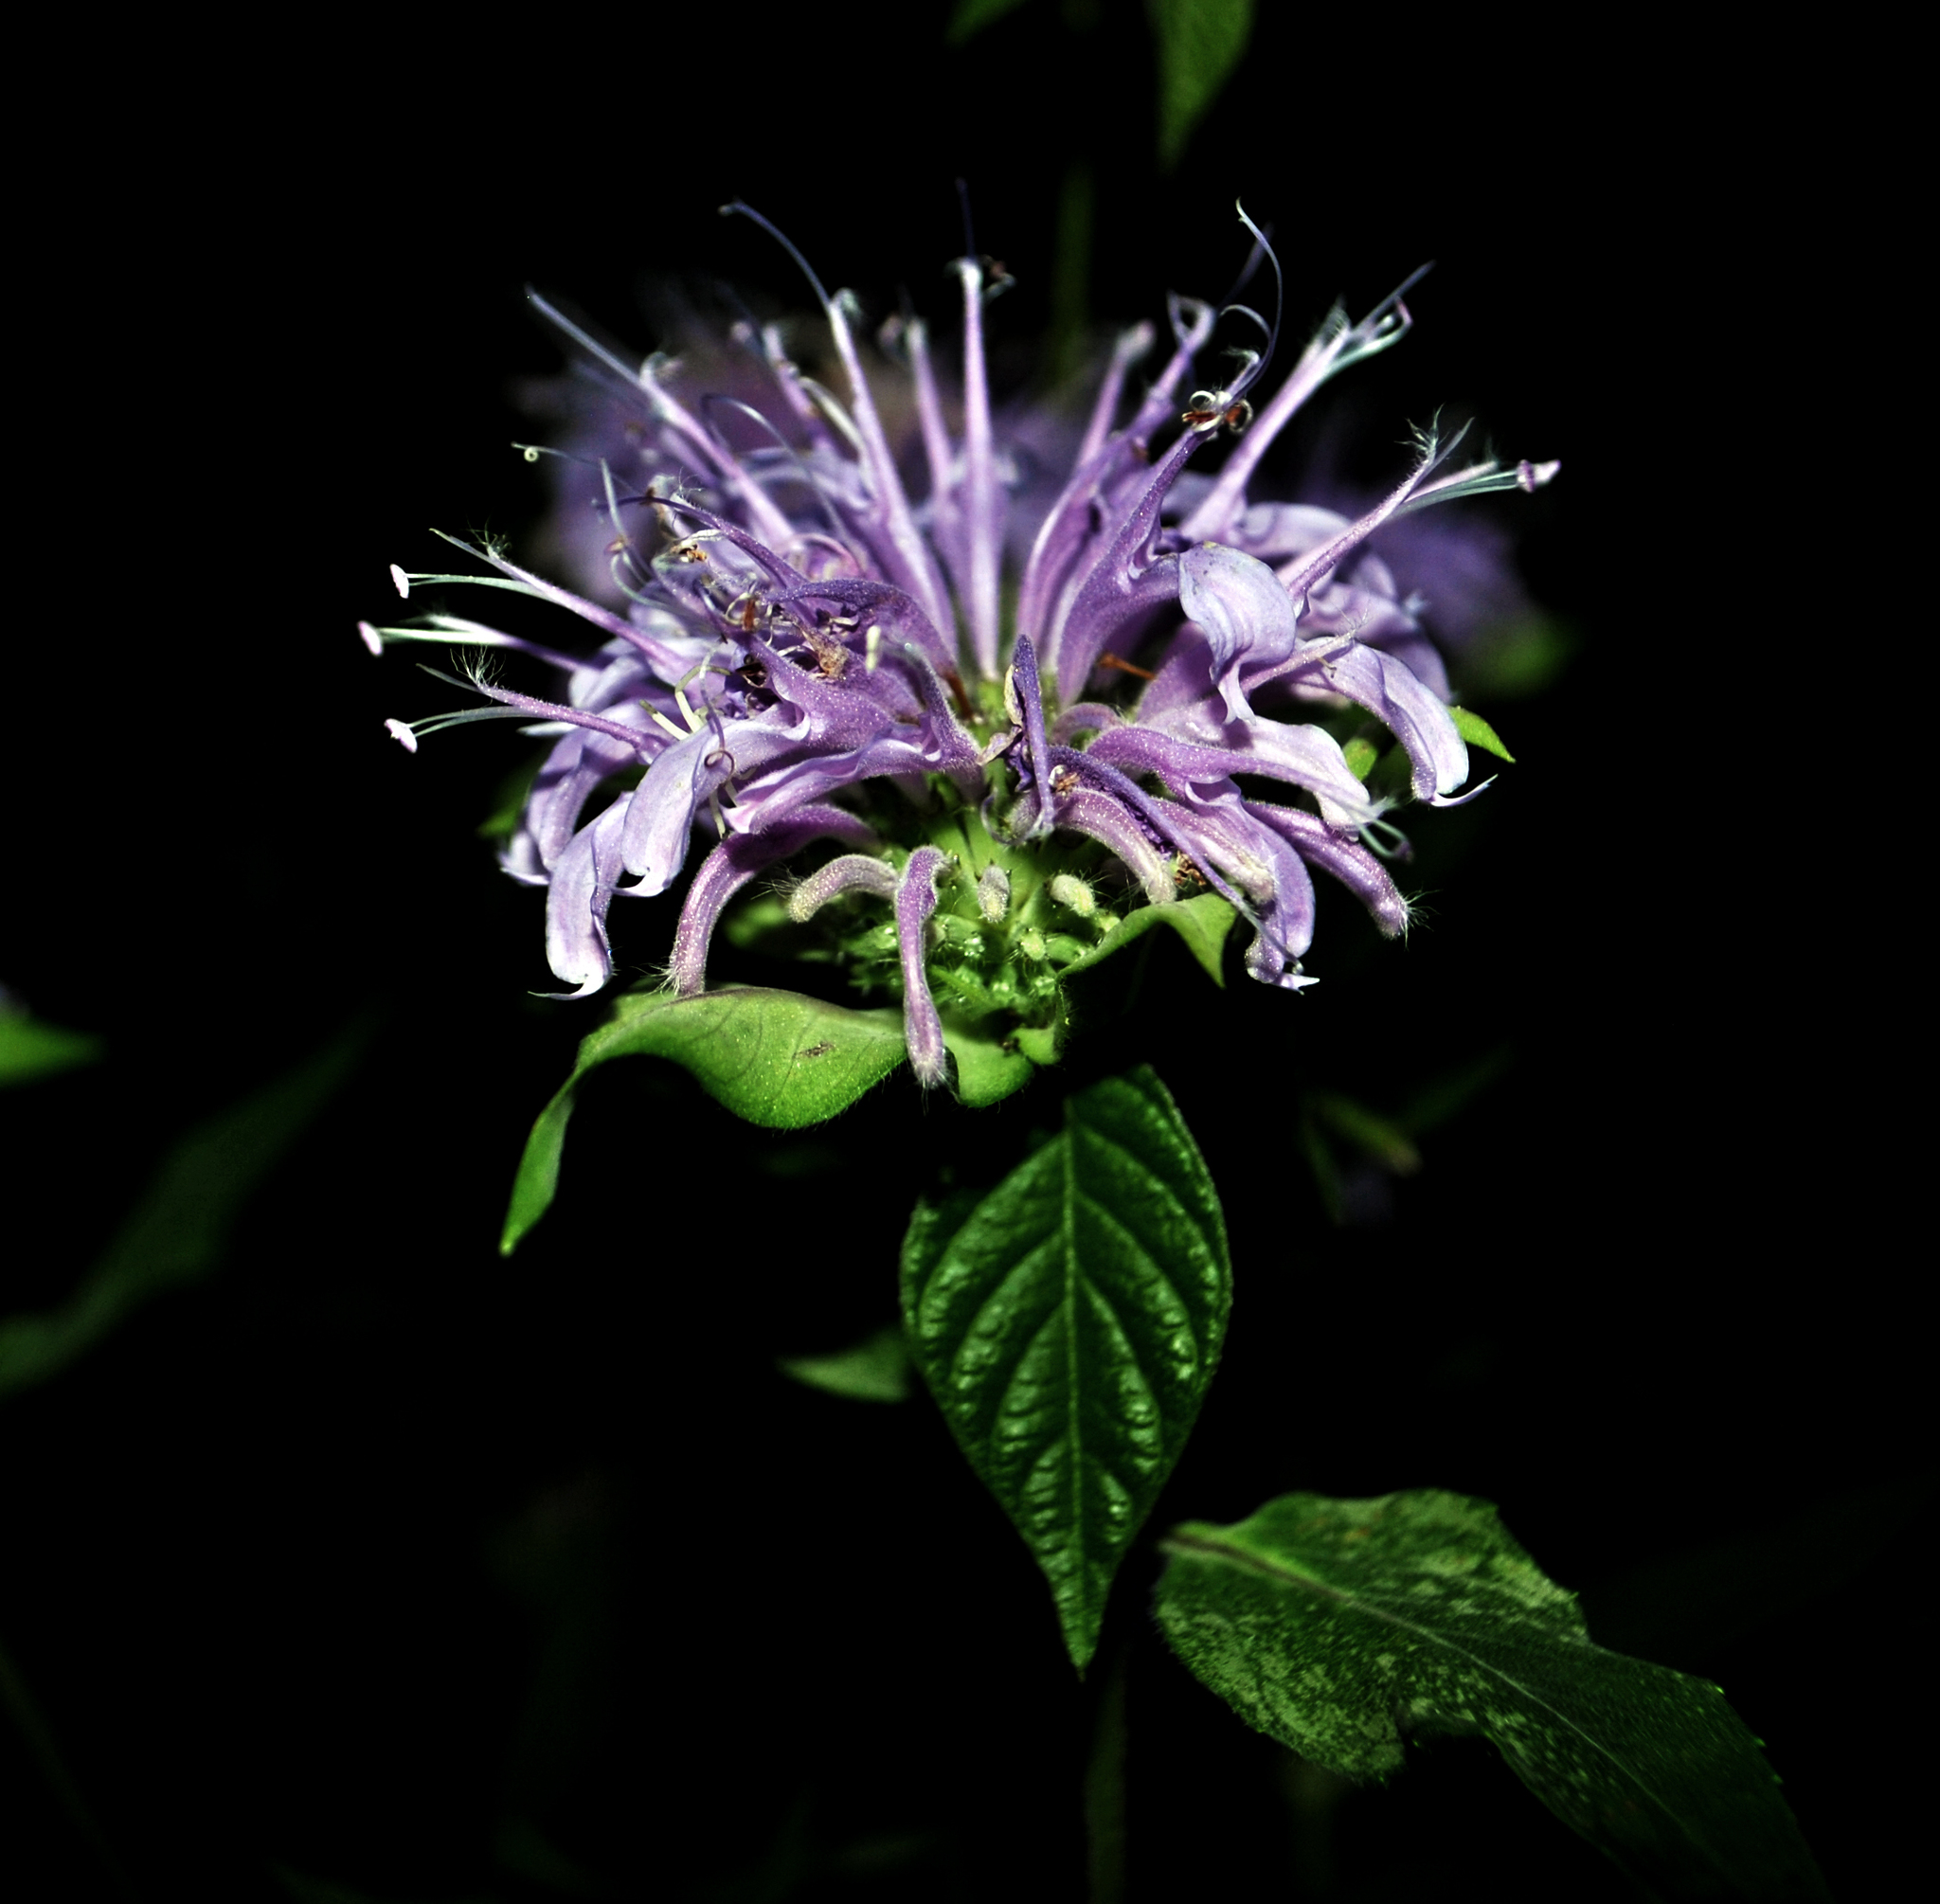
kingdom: Plantae
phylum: Tracheophyta
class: Magnoliopsida
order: Lamiales
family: Lamiaceae
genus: Monarda
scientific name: Monarda fistulosa
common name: Purple beebalm
